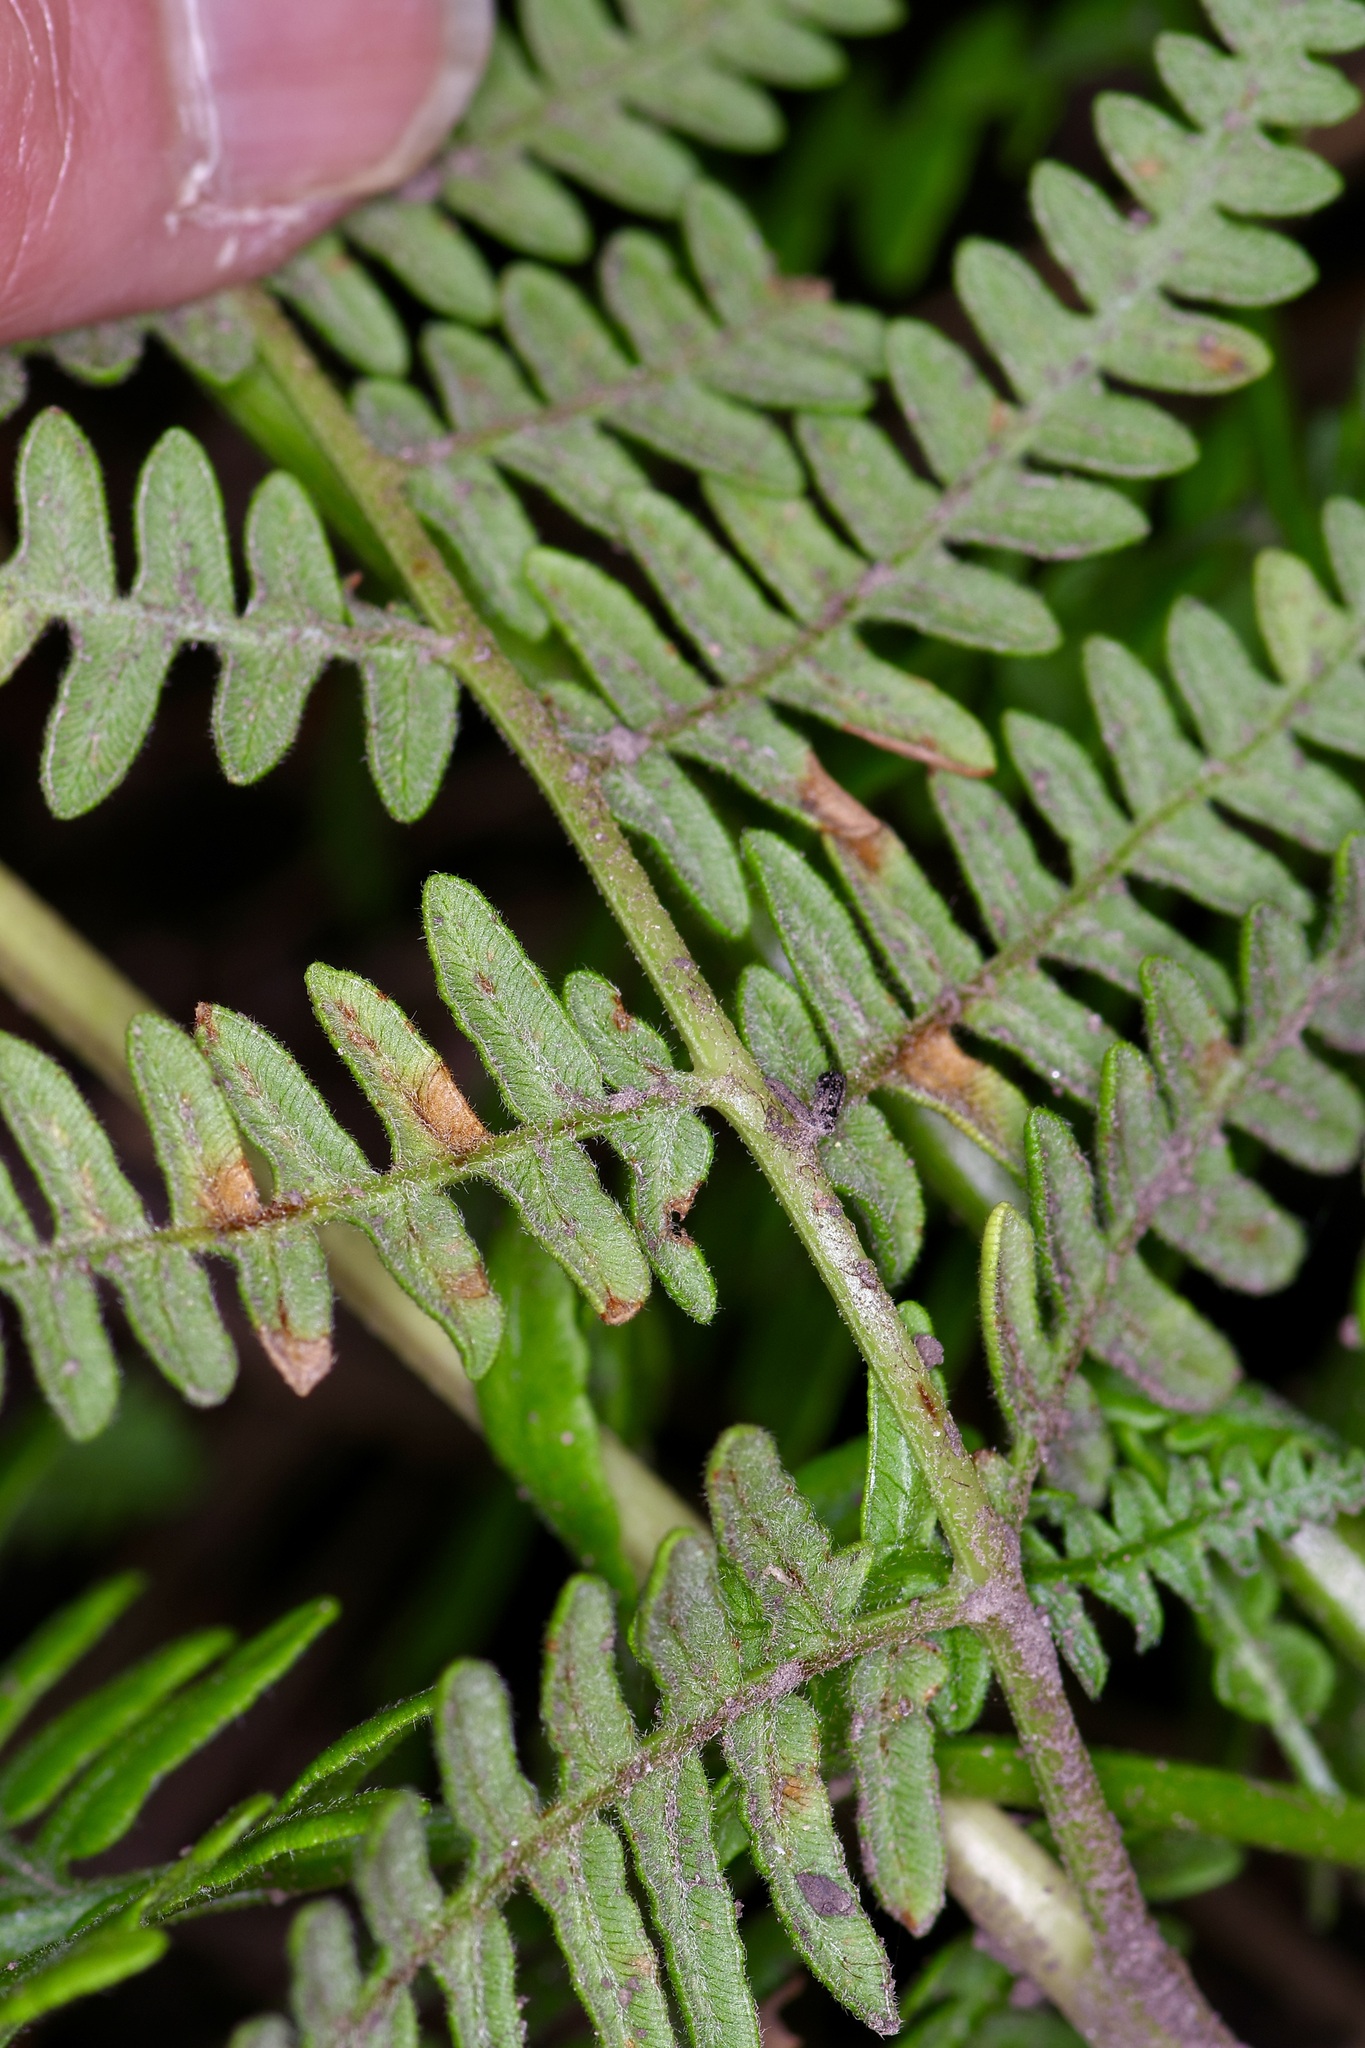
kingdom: Plantae
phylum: Tracheophyta
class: Polypodiopsida
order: Polypodiales
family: Dennstaedtiaceae
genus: Pteridium
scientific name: Pteridium aquilinum
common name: Bracken
